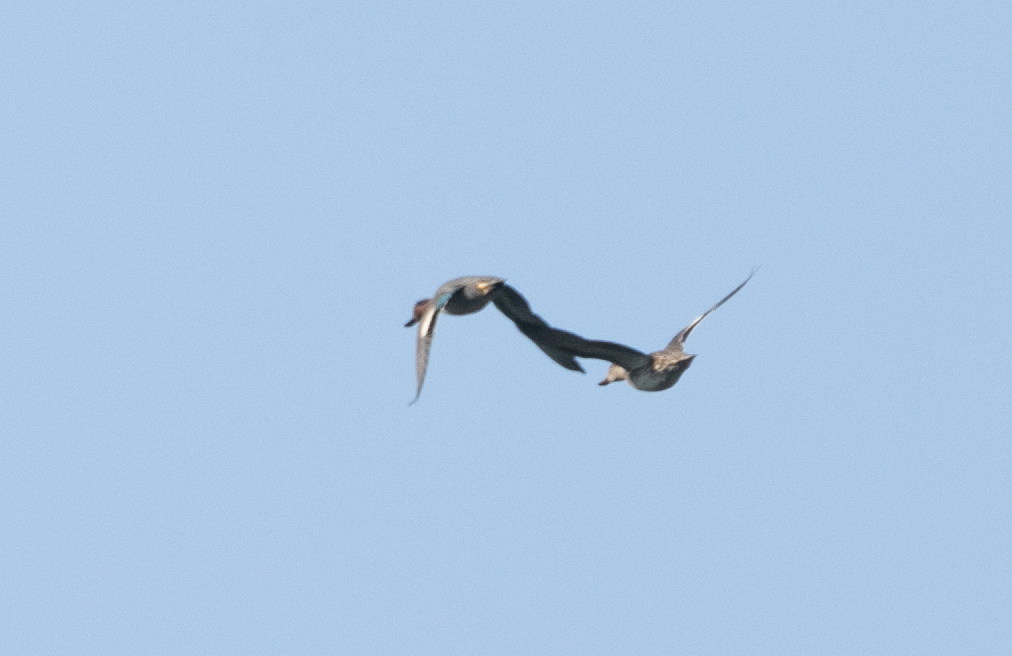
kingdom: Animalia
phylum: Chordata
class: Aves
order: Anseriformes
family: Anatidae
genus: Anas
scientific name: Anas crecca
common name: Eurasian teal
